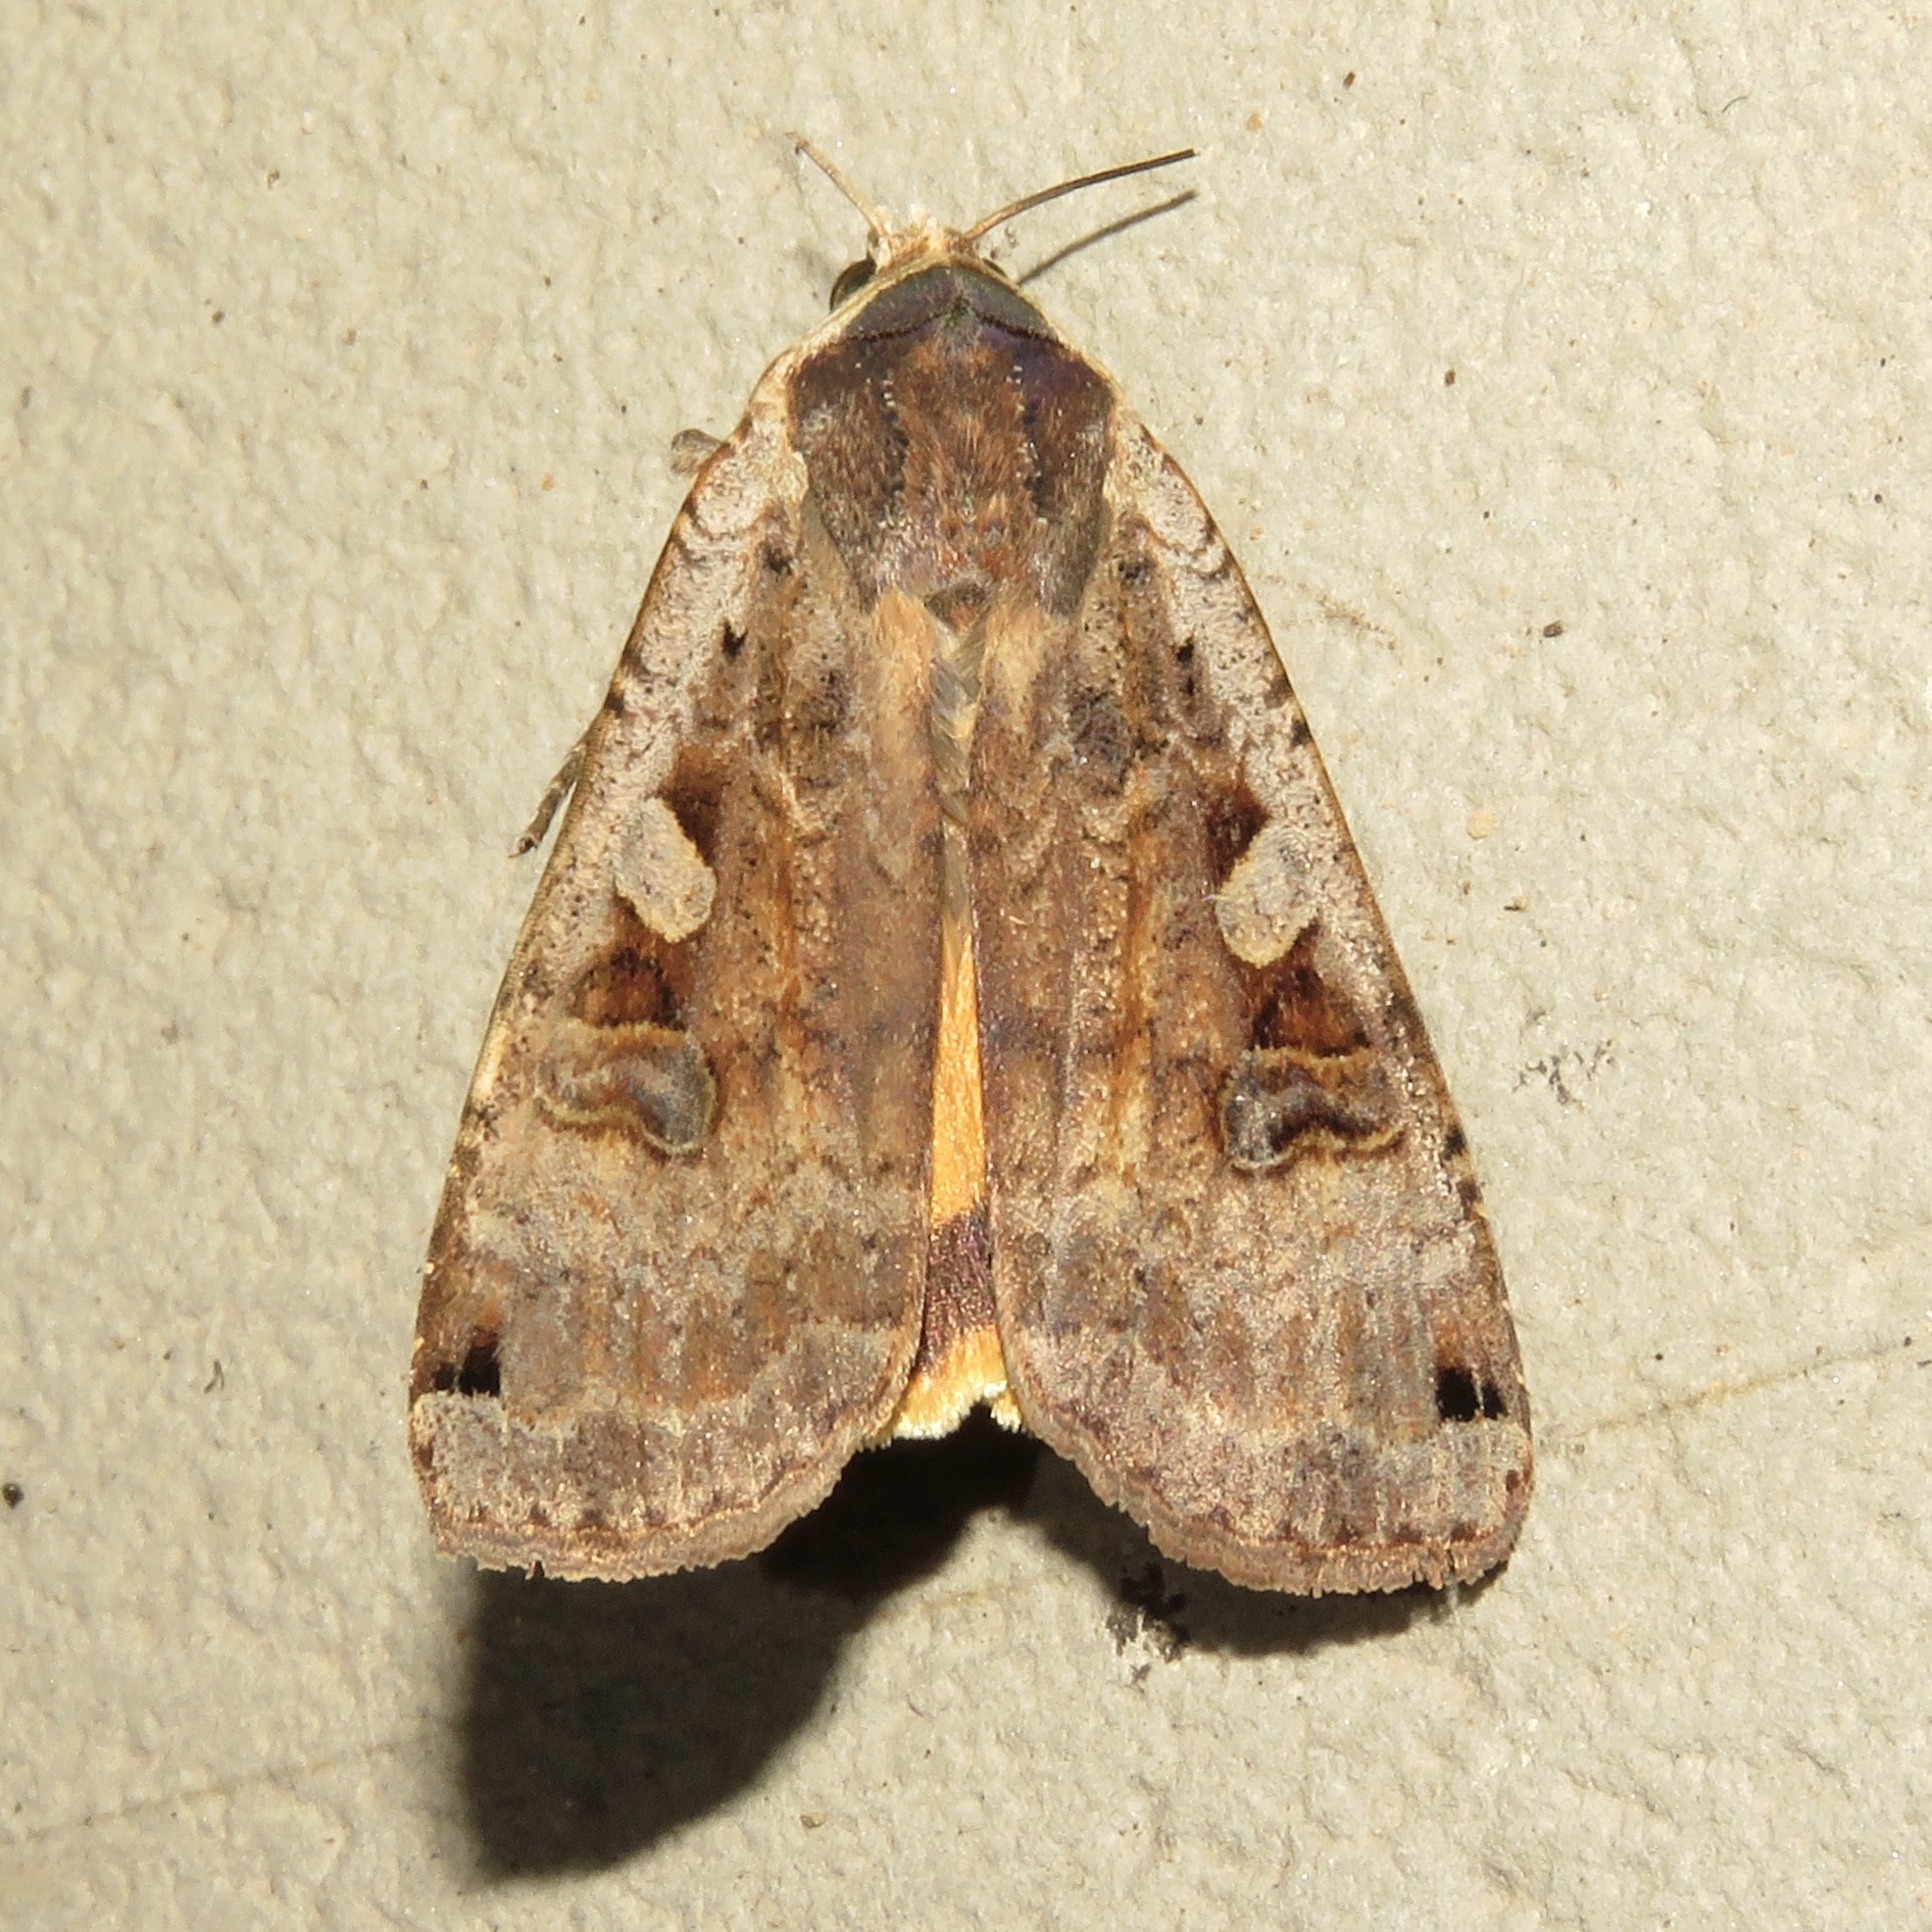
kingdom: Animalia
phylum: Arthropoda
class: Insecta
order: Lepidoptera
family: Noctuidae
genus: Noctua
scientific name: Noctua pronuba
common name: Large yellow underwing
